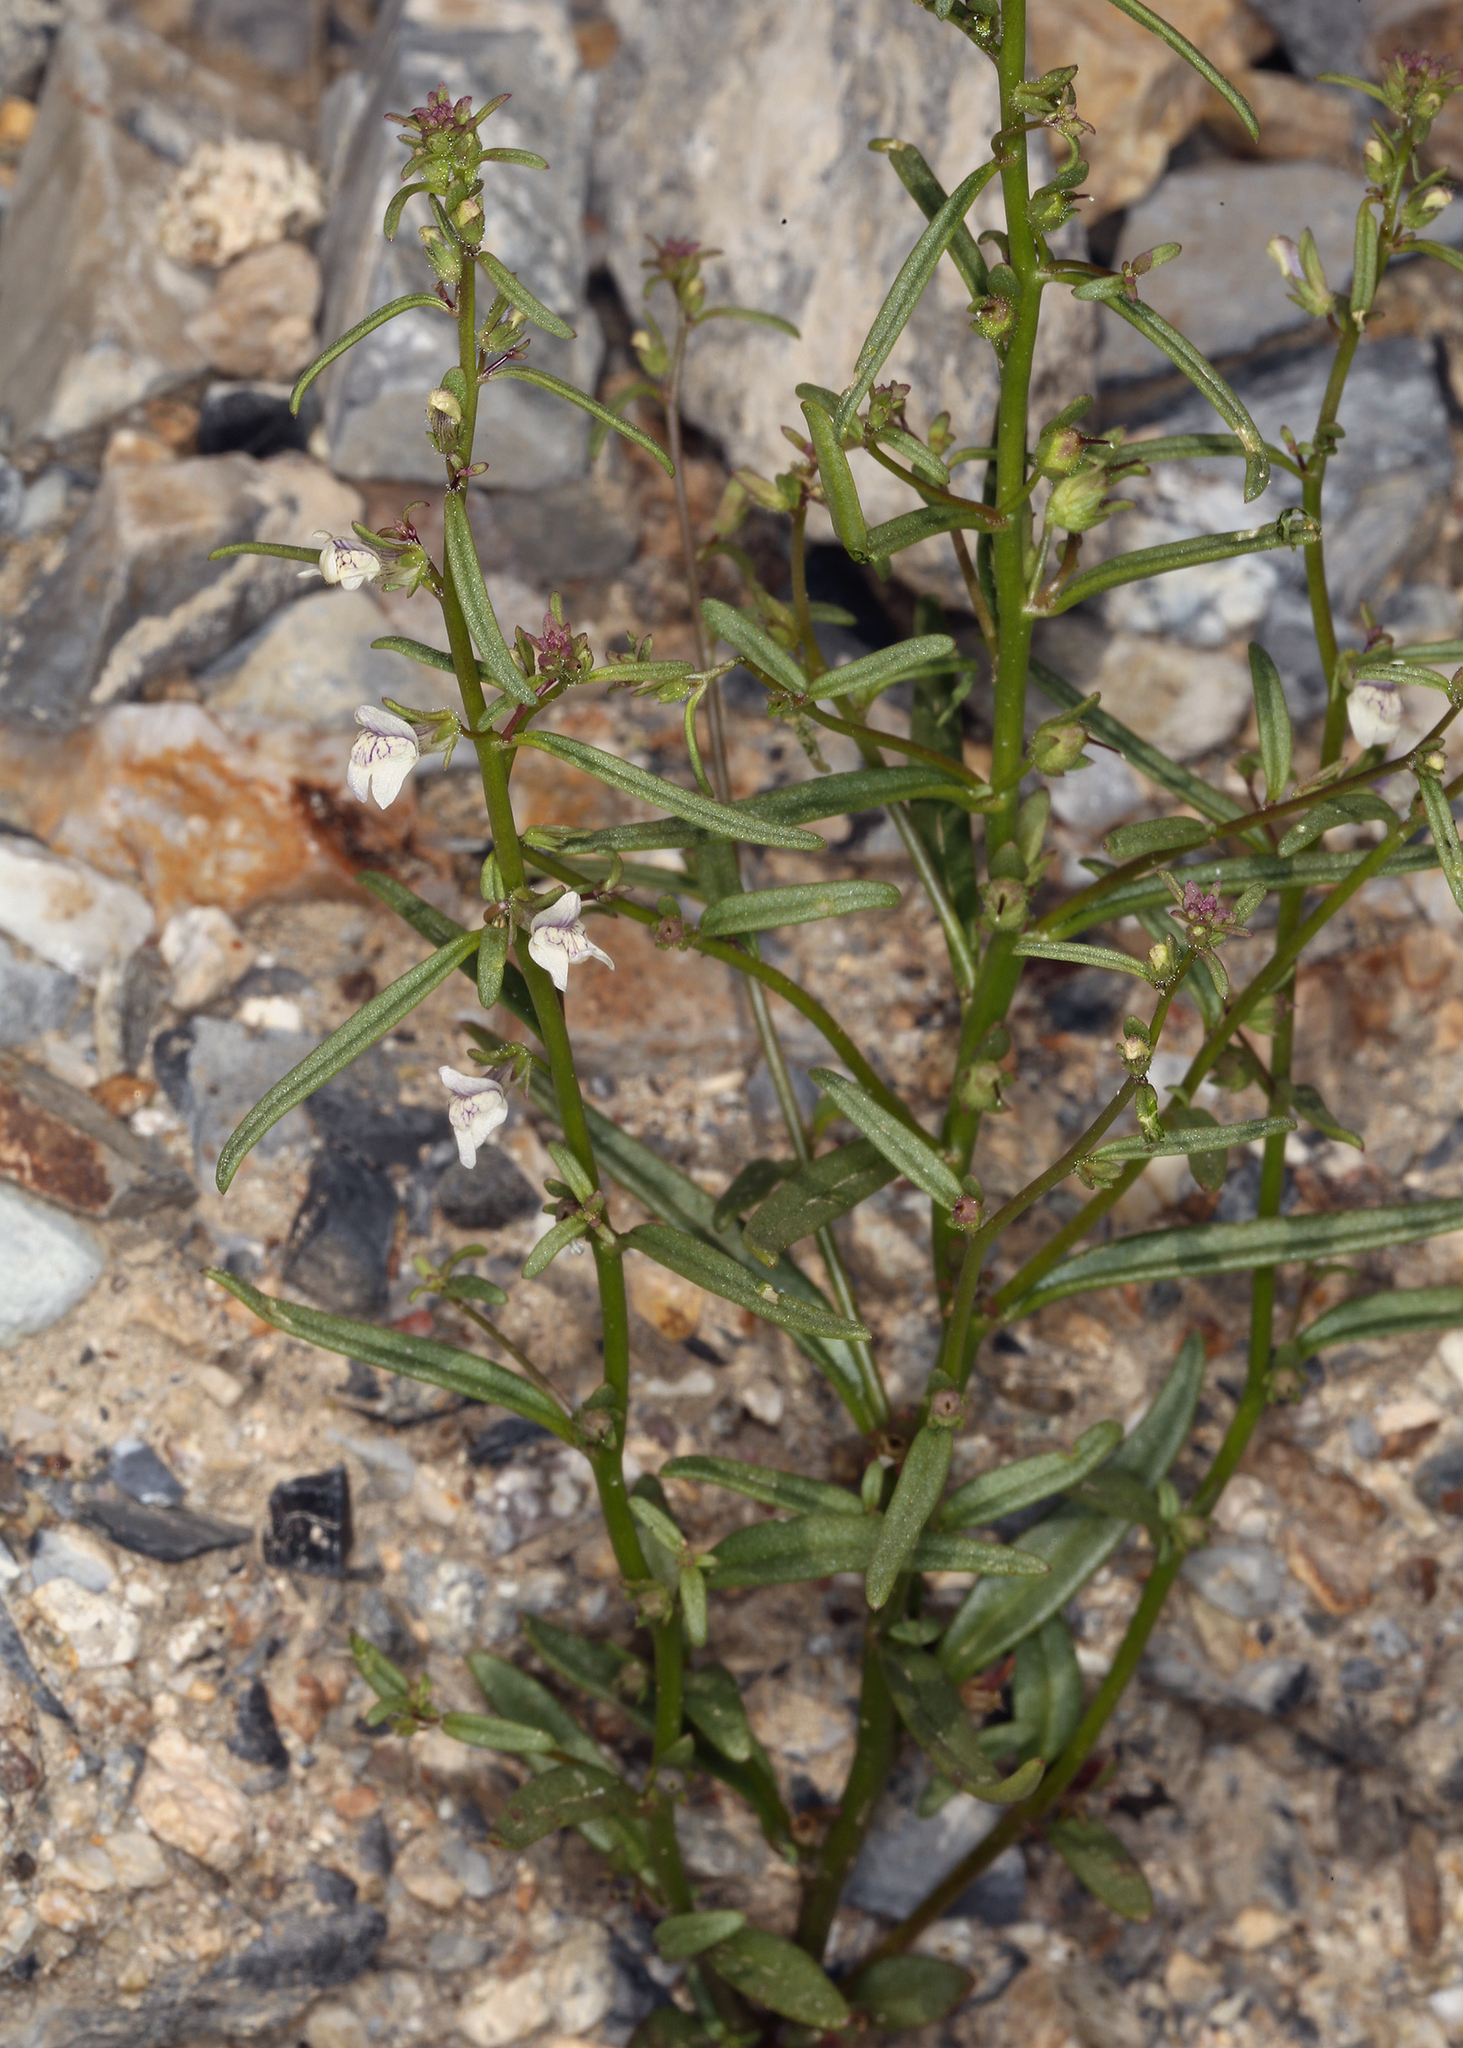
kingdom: Plantae
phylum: Tracheophyta
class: Magnoliopsida
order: Lamiales
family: Plantaginaceae
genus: Sairocarpus
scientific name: Sairocarpus kingii
